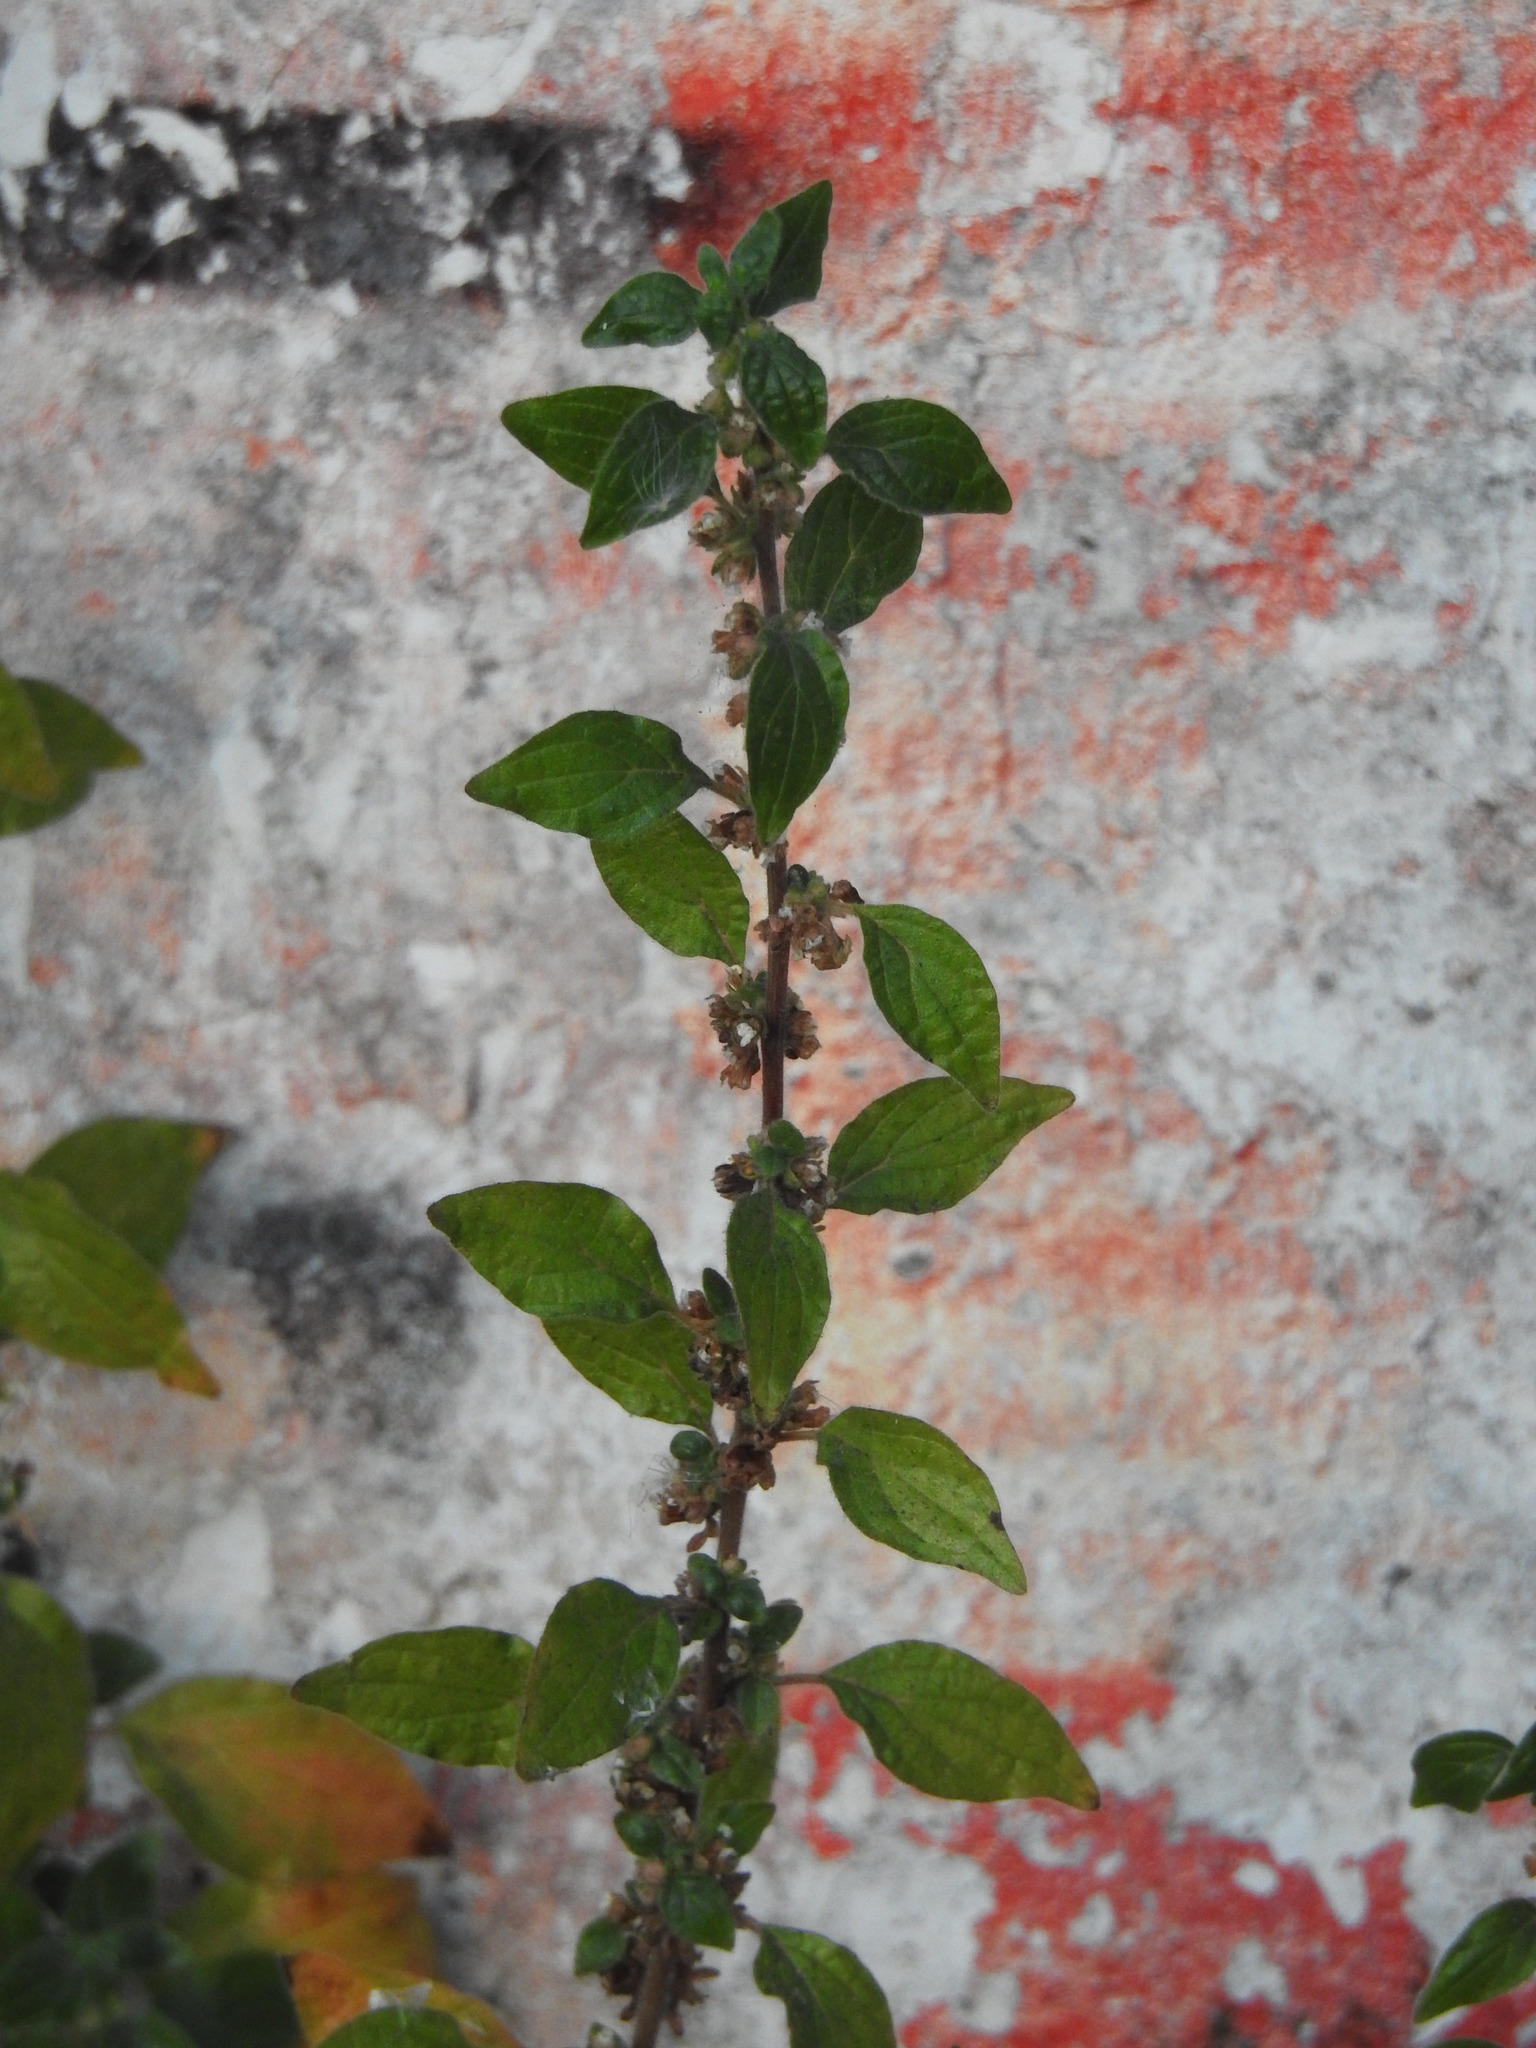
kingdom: Plantae
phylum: Tracheophyta
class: Magnoliopsida
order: Rosales
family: Urticaceae
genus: Parietaria
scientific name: Parietaria judaica
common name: Pellitory-of-the-wall
